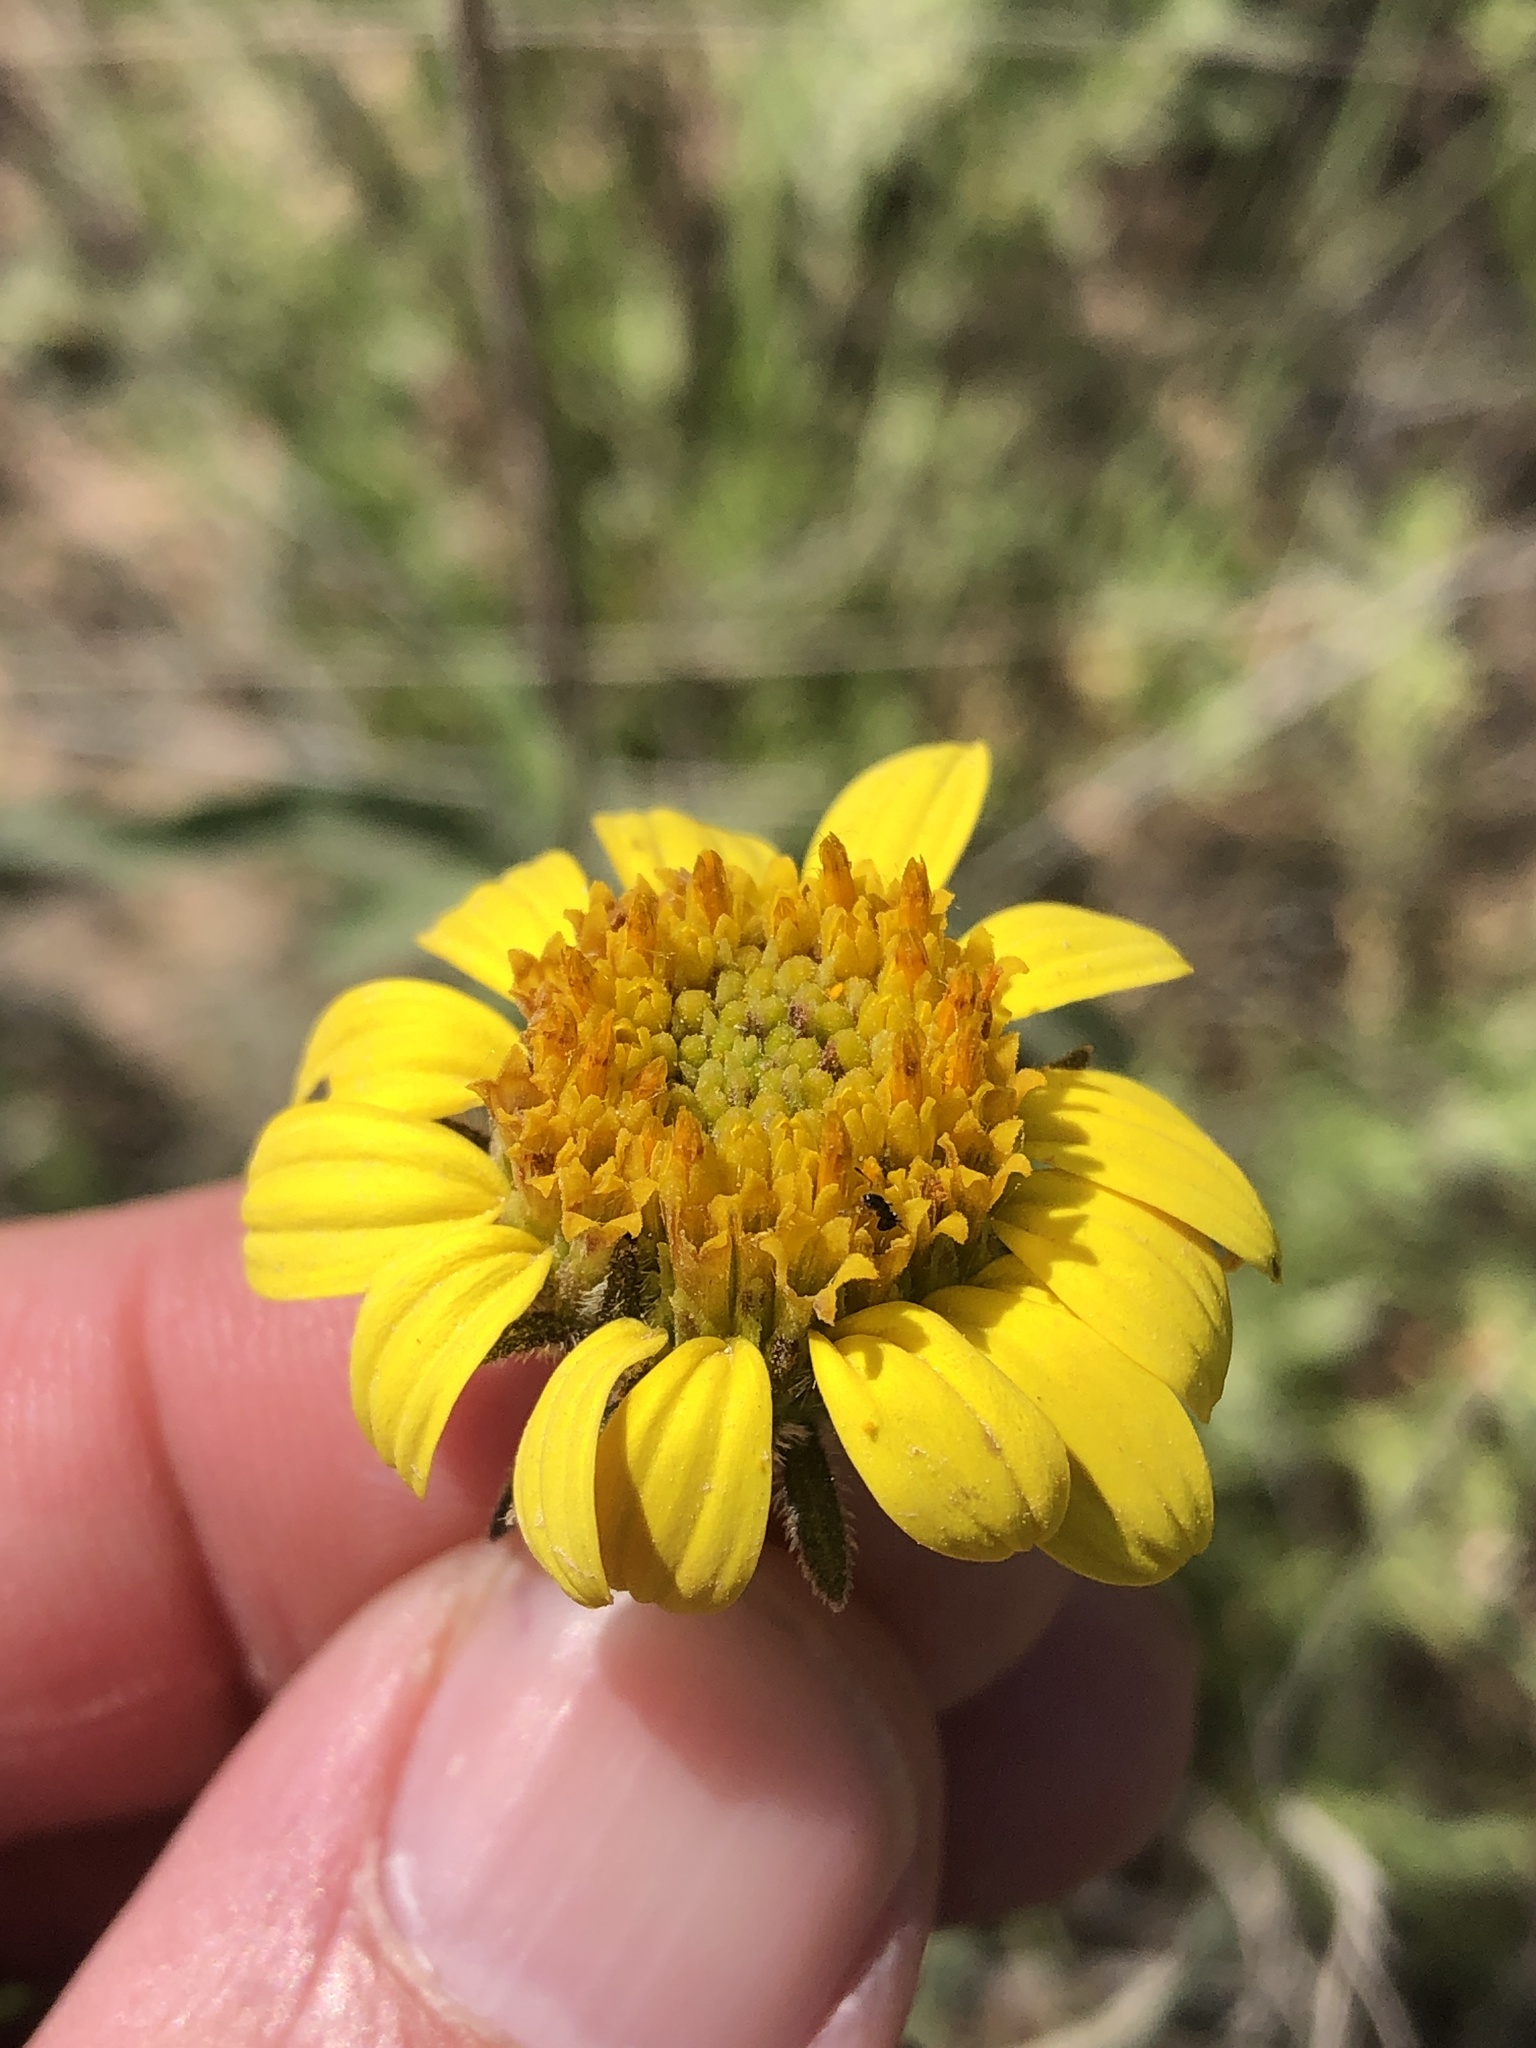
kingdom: Plantae
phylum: Tracheophyta
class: Magnoliopsida
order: Asterales
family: Asteraceae
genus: Simsia
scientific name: Simsia calva
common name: Awnless bush-sunflower
